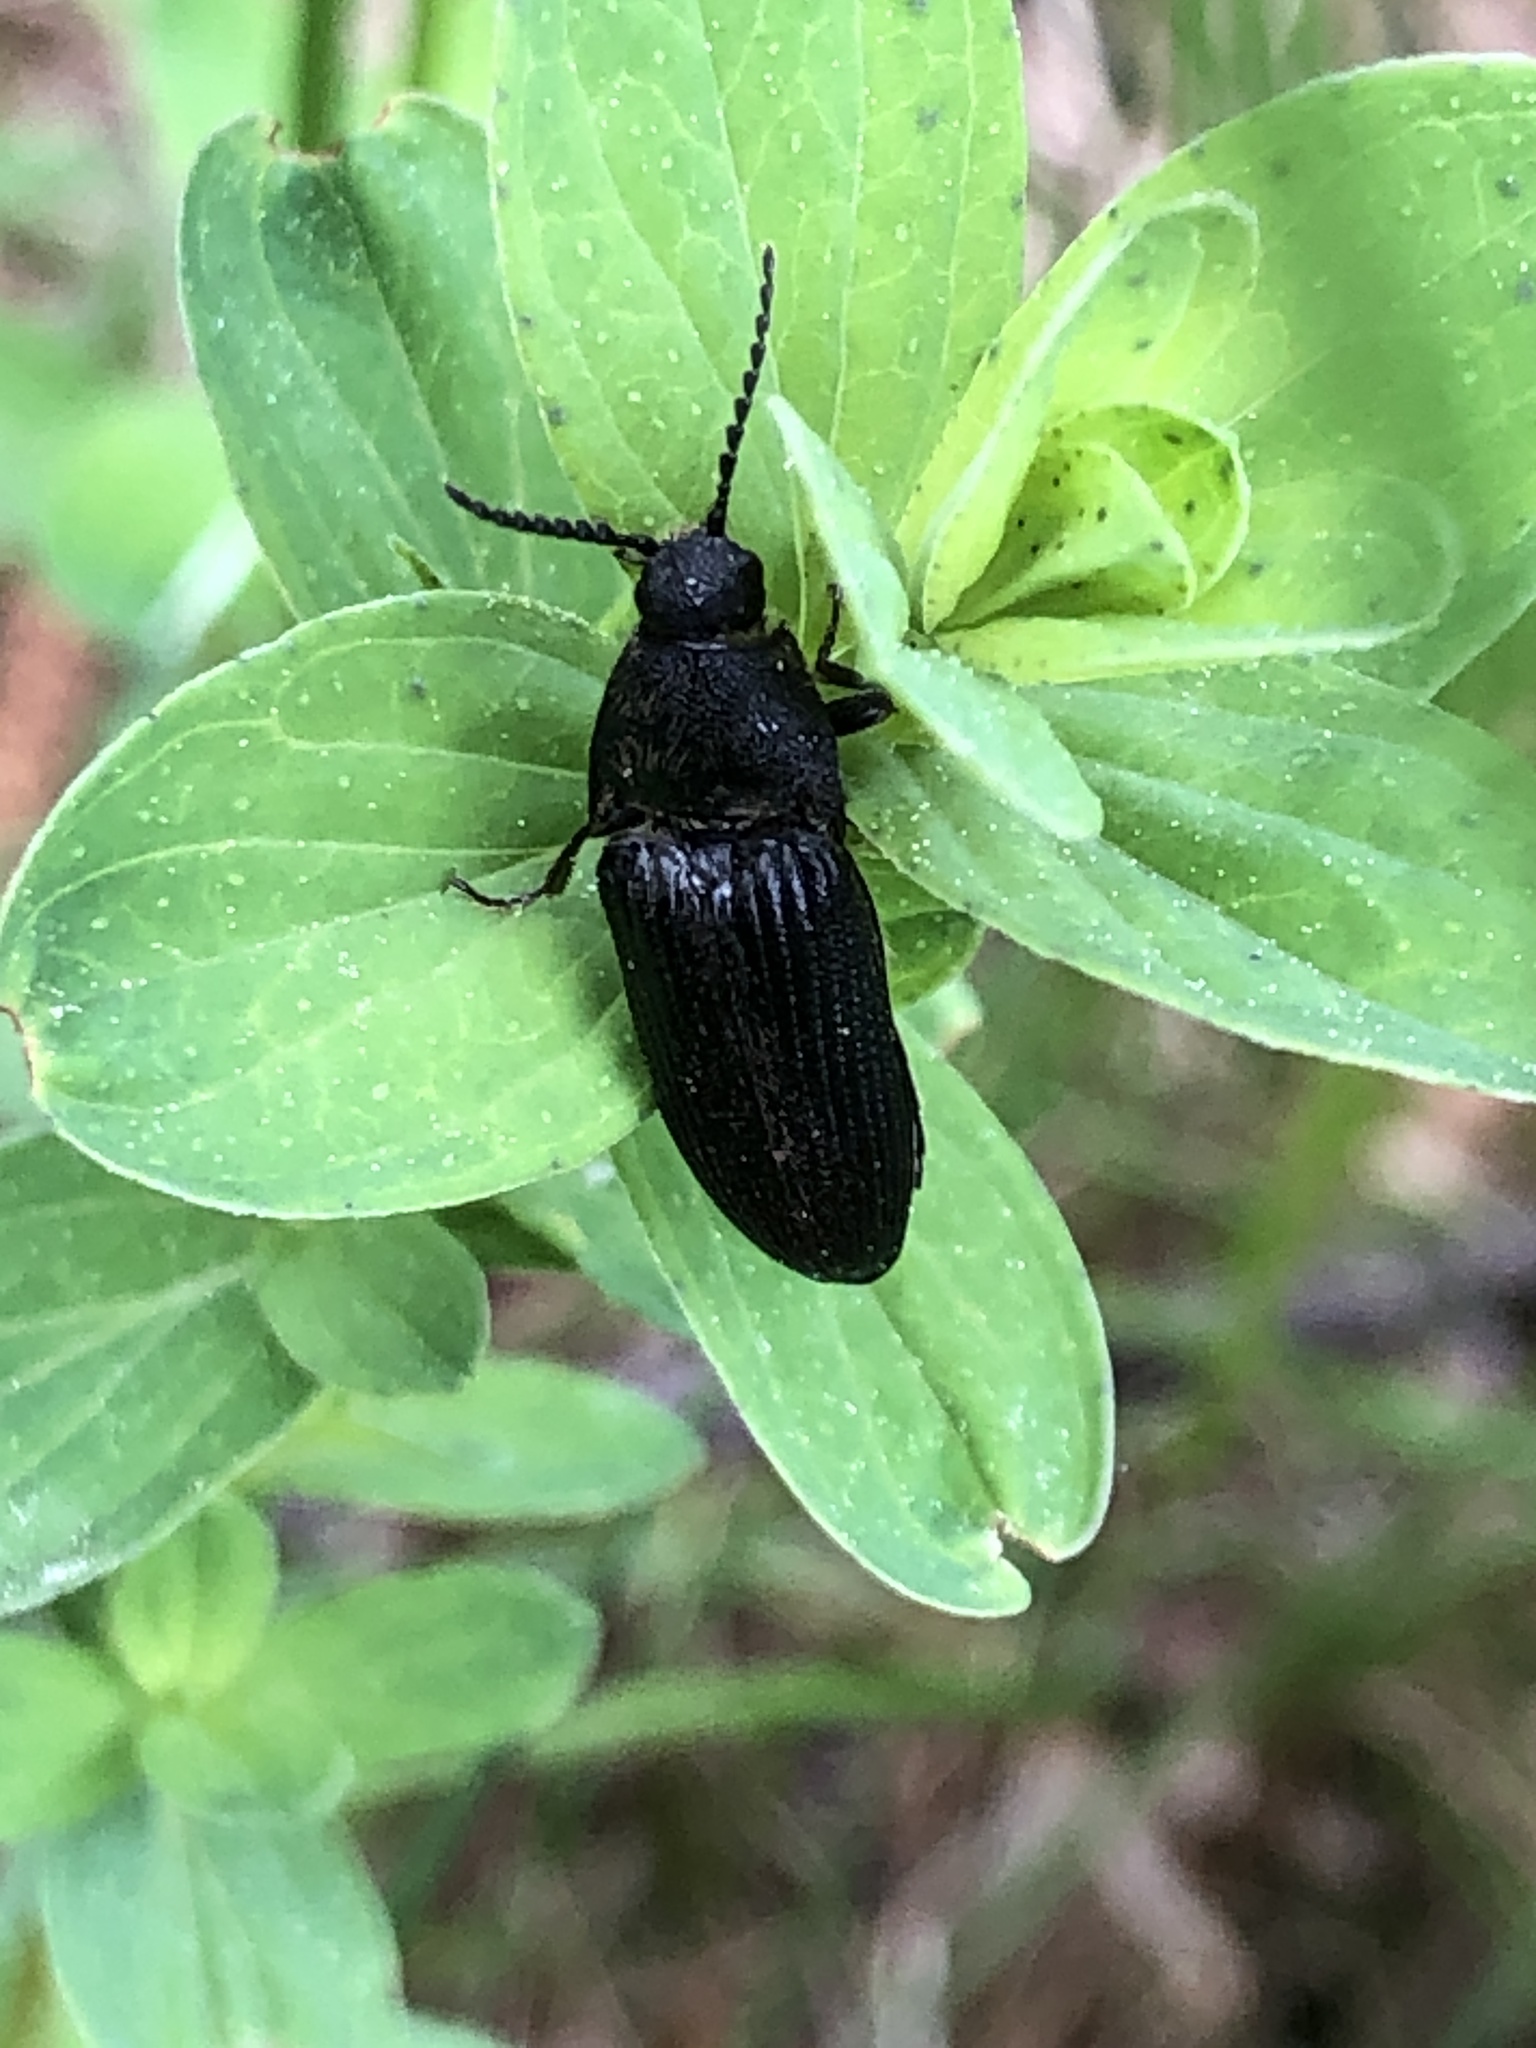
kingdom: Animalia
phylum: Arthropoda
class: Insecta
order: Coleoptera
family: Elateridae
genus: Melanotus
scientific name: Melanotus punctolineatus
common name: Sandwich click beetle
